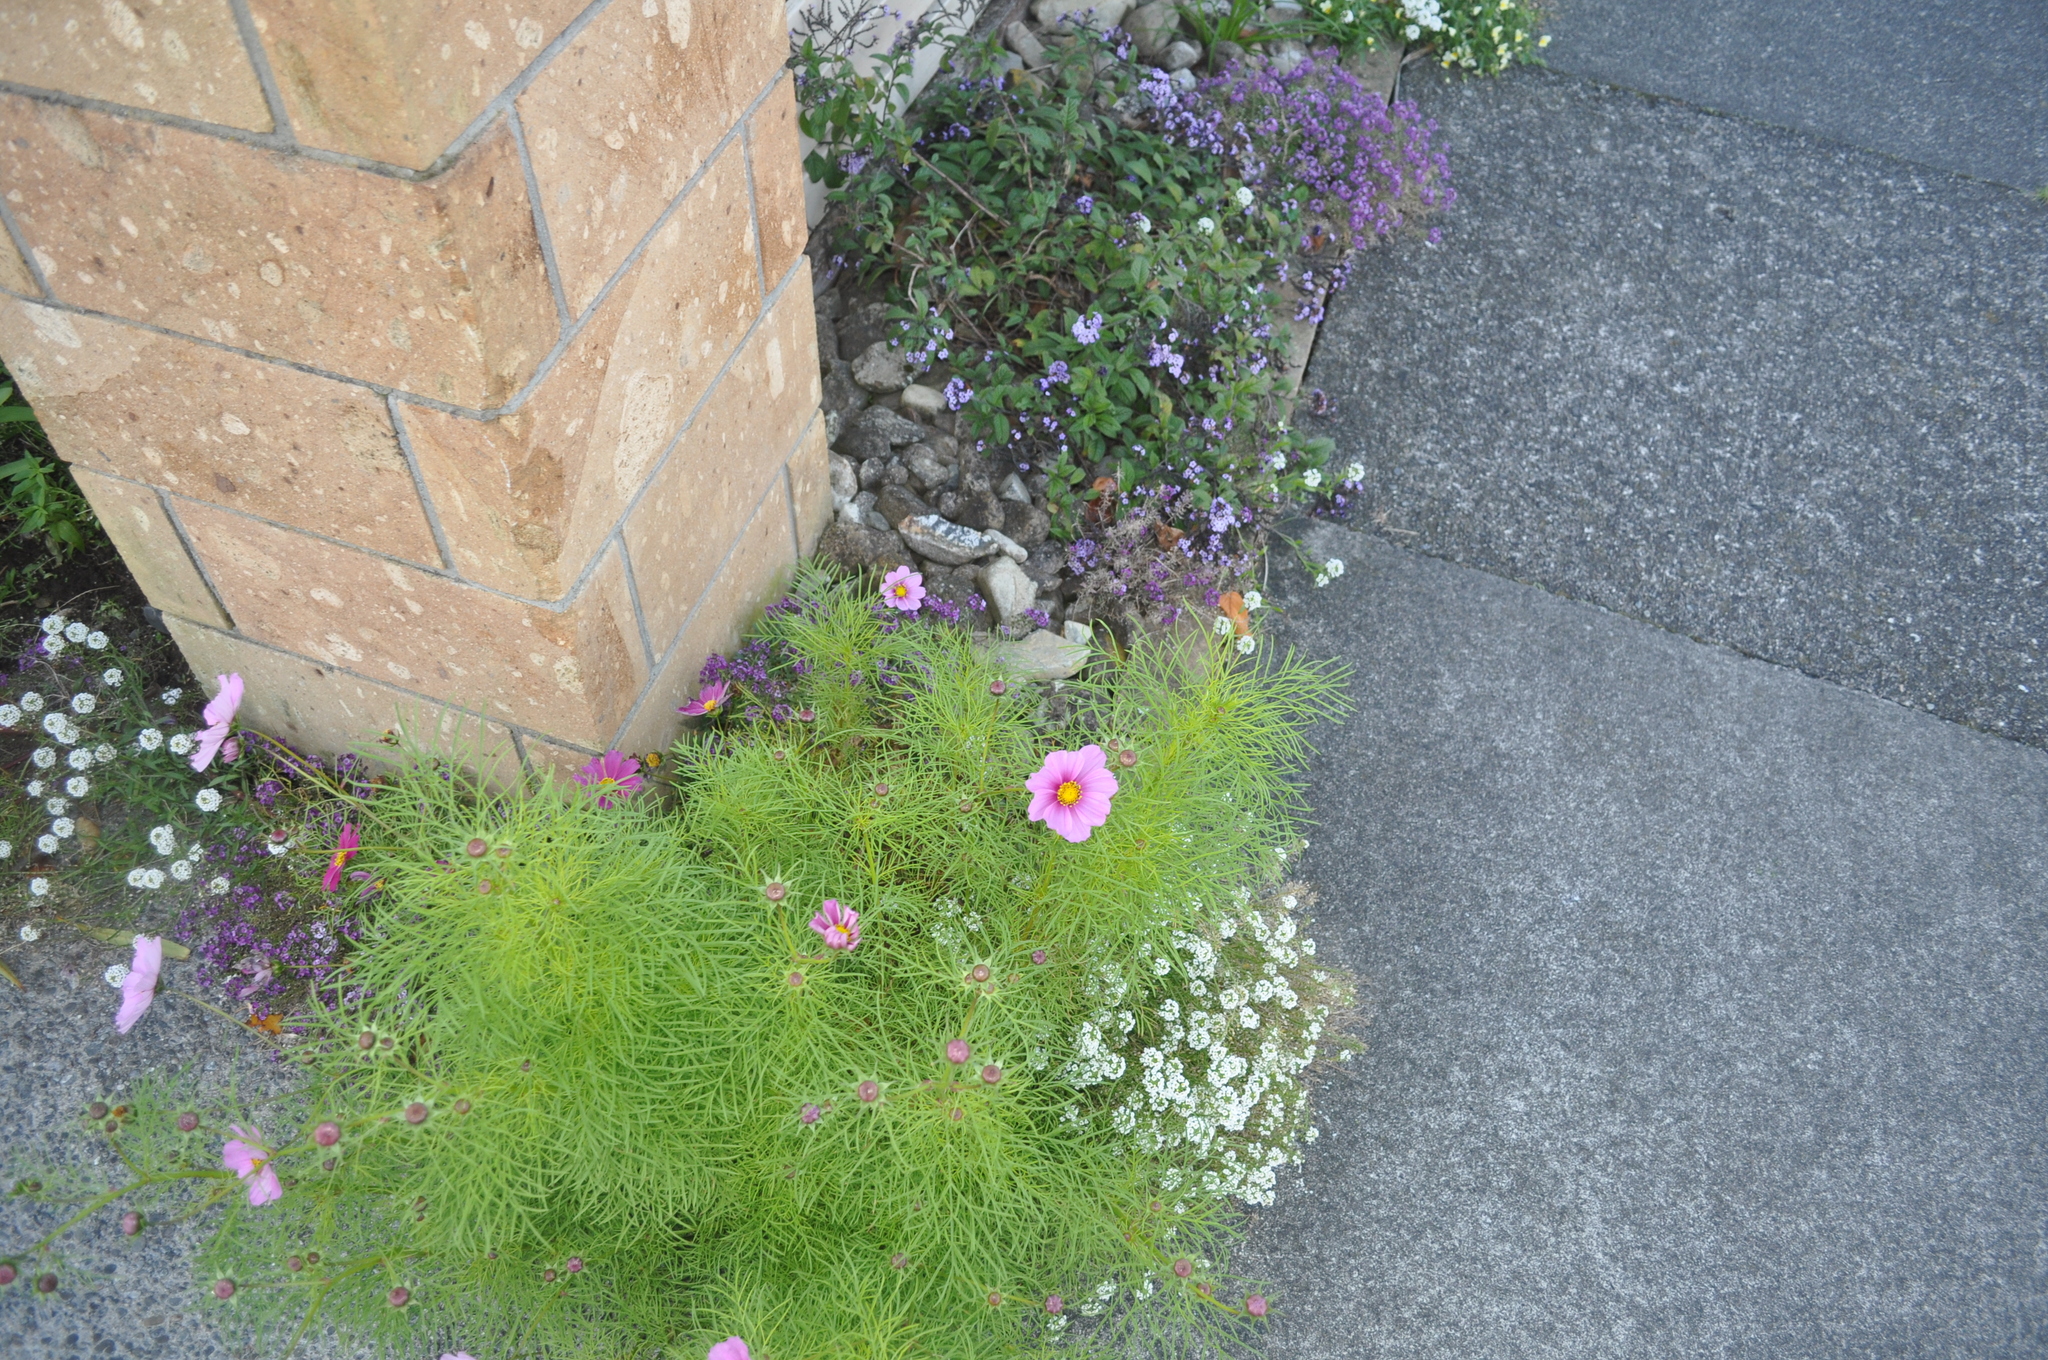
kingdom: Plantae
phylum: Tracheophyta
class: Magnoliopsida
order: Asterales
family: Asteraceae
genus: Cosmos
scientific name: Cosmos bipinnatus
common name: Garden cosmos
